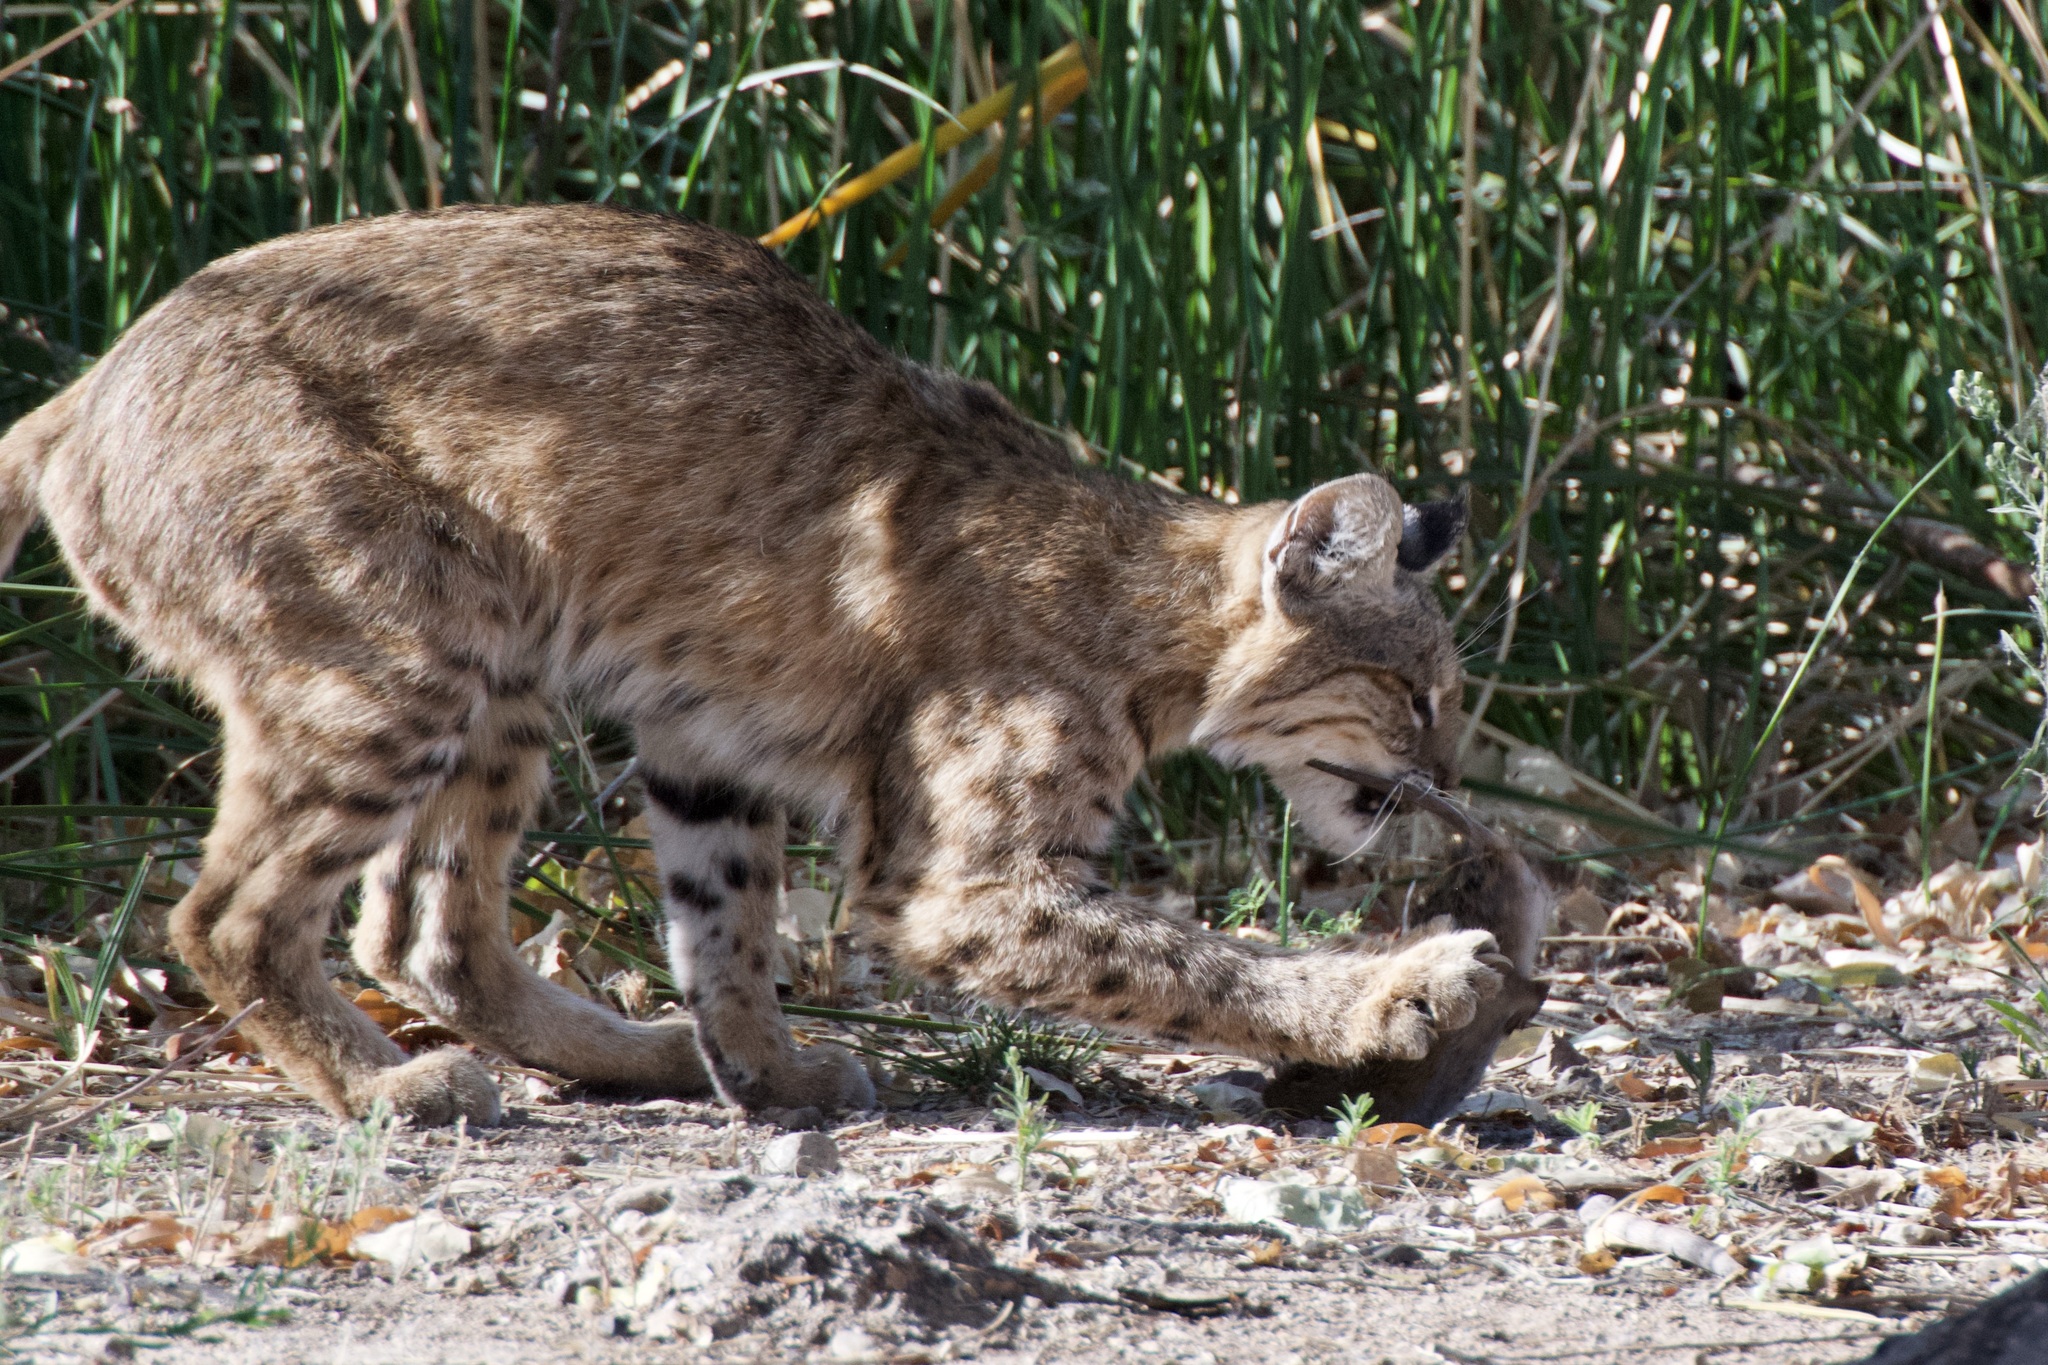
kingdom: Animalia
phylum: Chordata
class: Mammalia
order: Carnivora
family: Felidae
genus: Lynx
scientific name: Lynx rufus
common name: Bobcat
